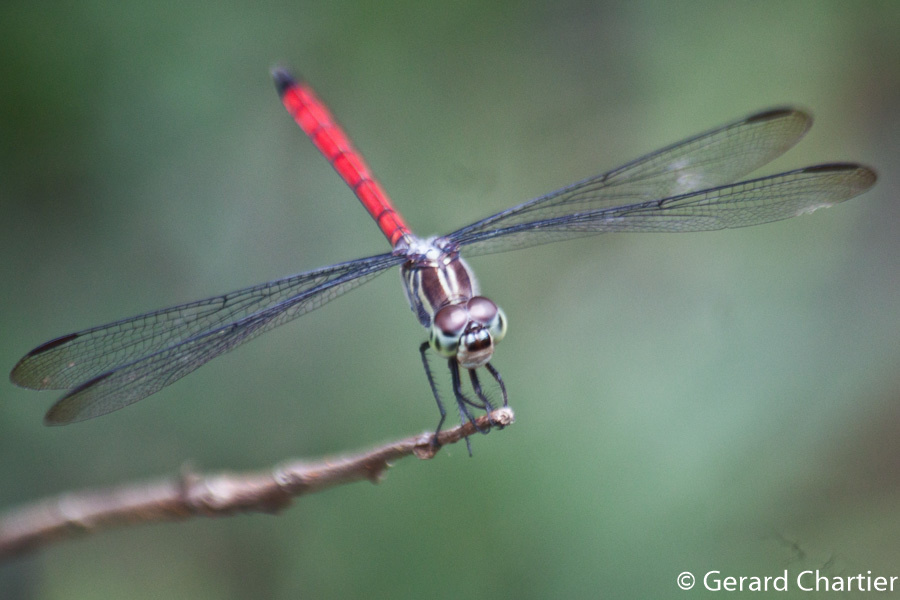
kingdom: Animalia
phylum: Arthropoda
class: Insecta
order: Odonata
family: Libellulidae
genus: Lathrecista
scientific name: Lathrecista asiatica
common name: Scarlet grenadier
